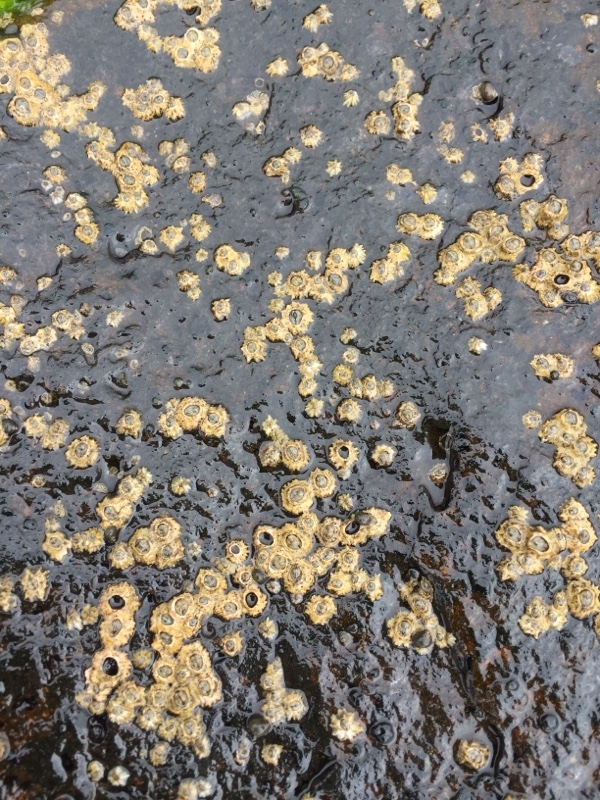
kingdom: Animalia
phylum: Arthropoda
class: Maxillopoda
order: Sessilia
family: Chthamalidae
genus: Chthamalus
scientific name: Chthamalus stellatus
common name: Poli's stellate barnacle
